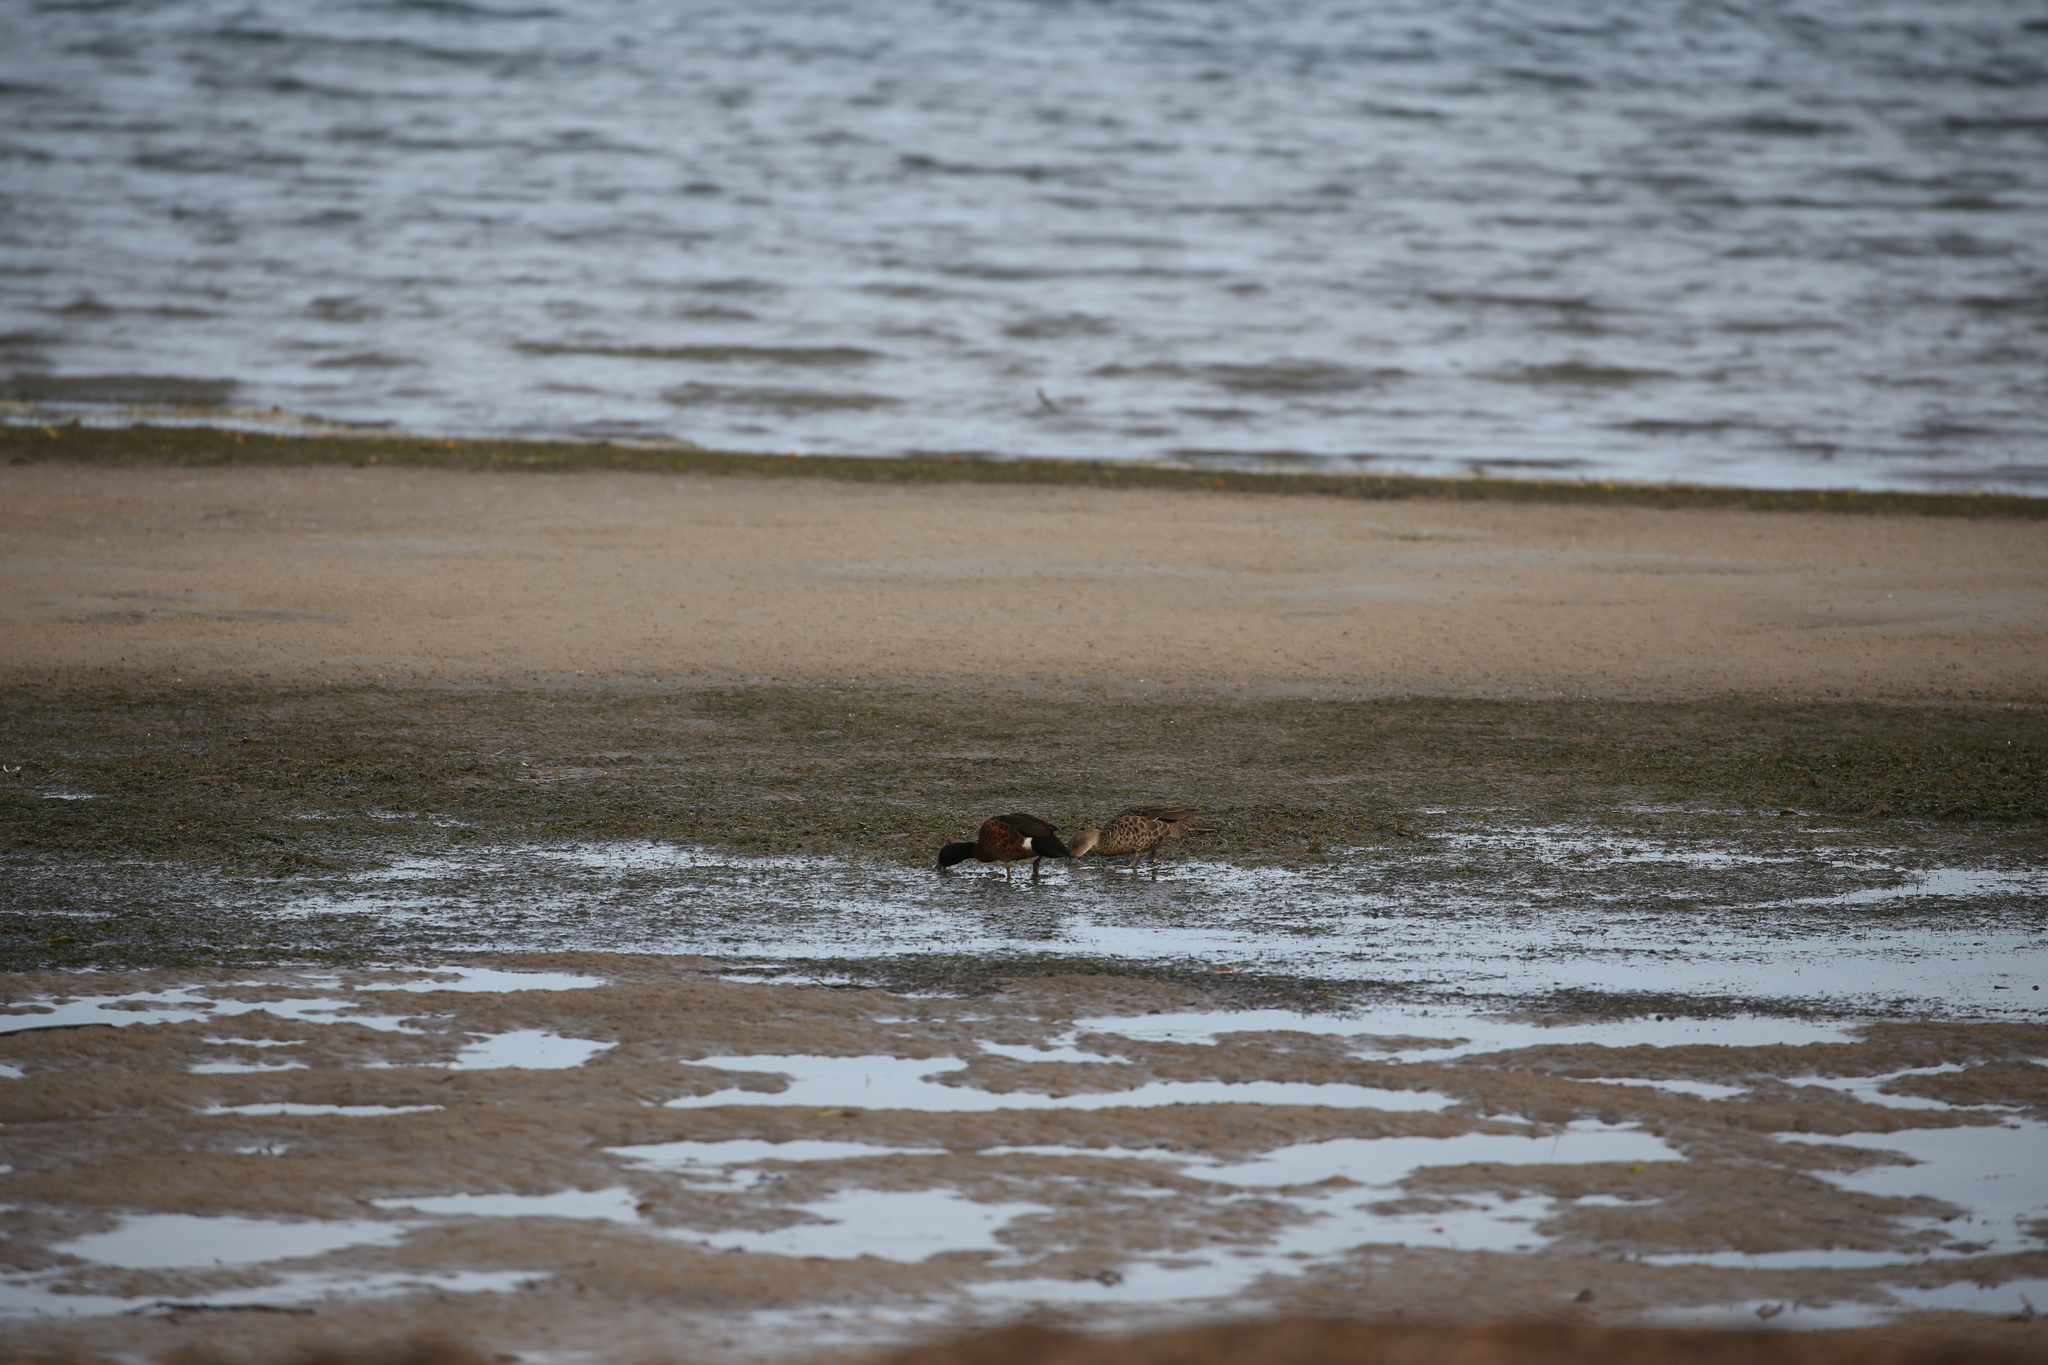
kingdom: Animalia
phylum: Chordata
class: Aves
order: Anseriformes
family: Anatidae
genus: Anas
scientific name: Anas castanea
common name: Chestnut teal
